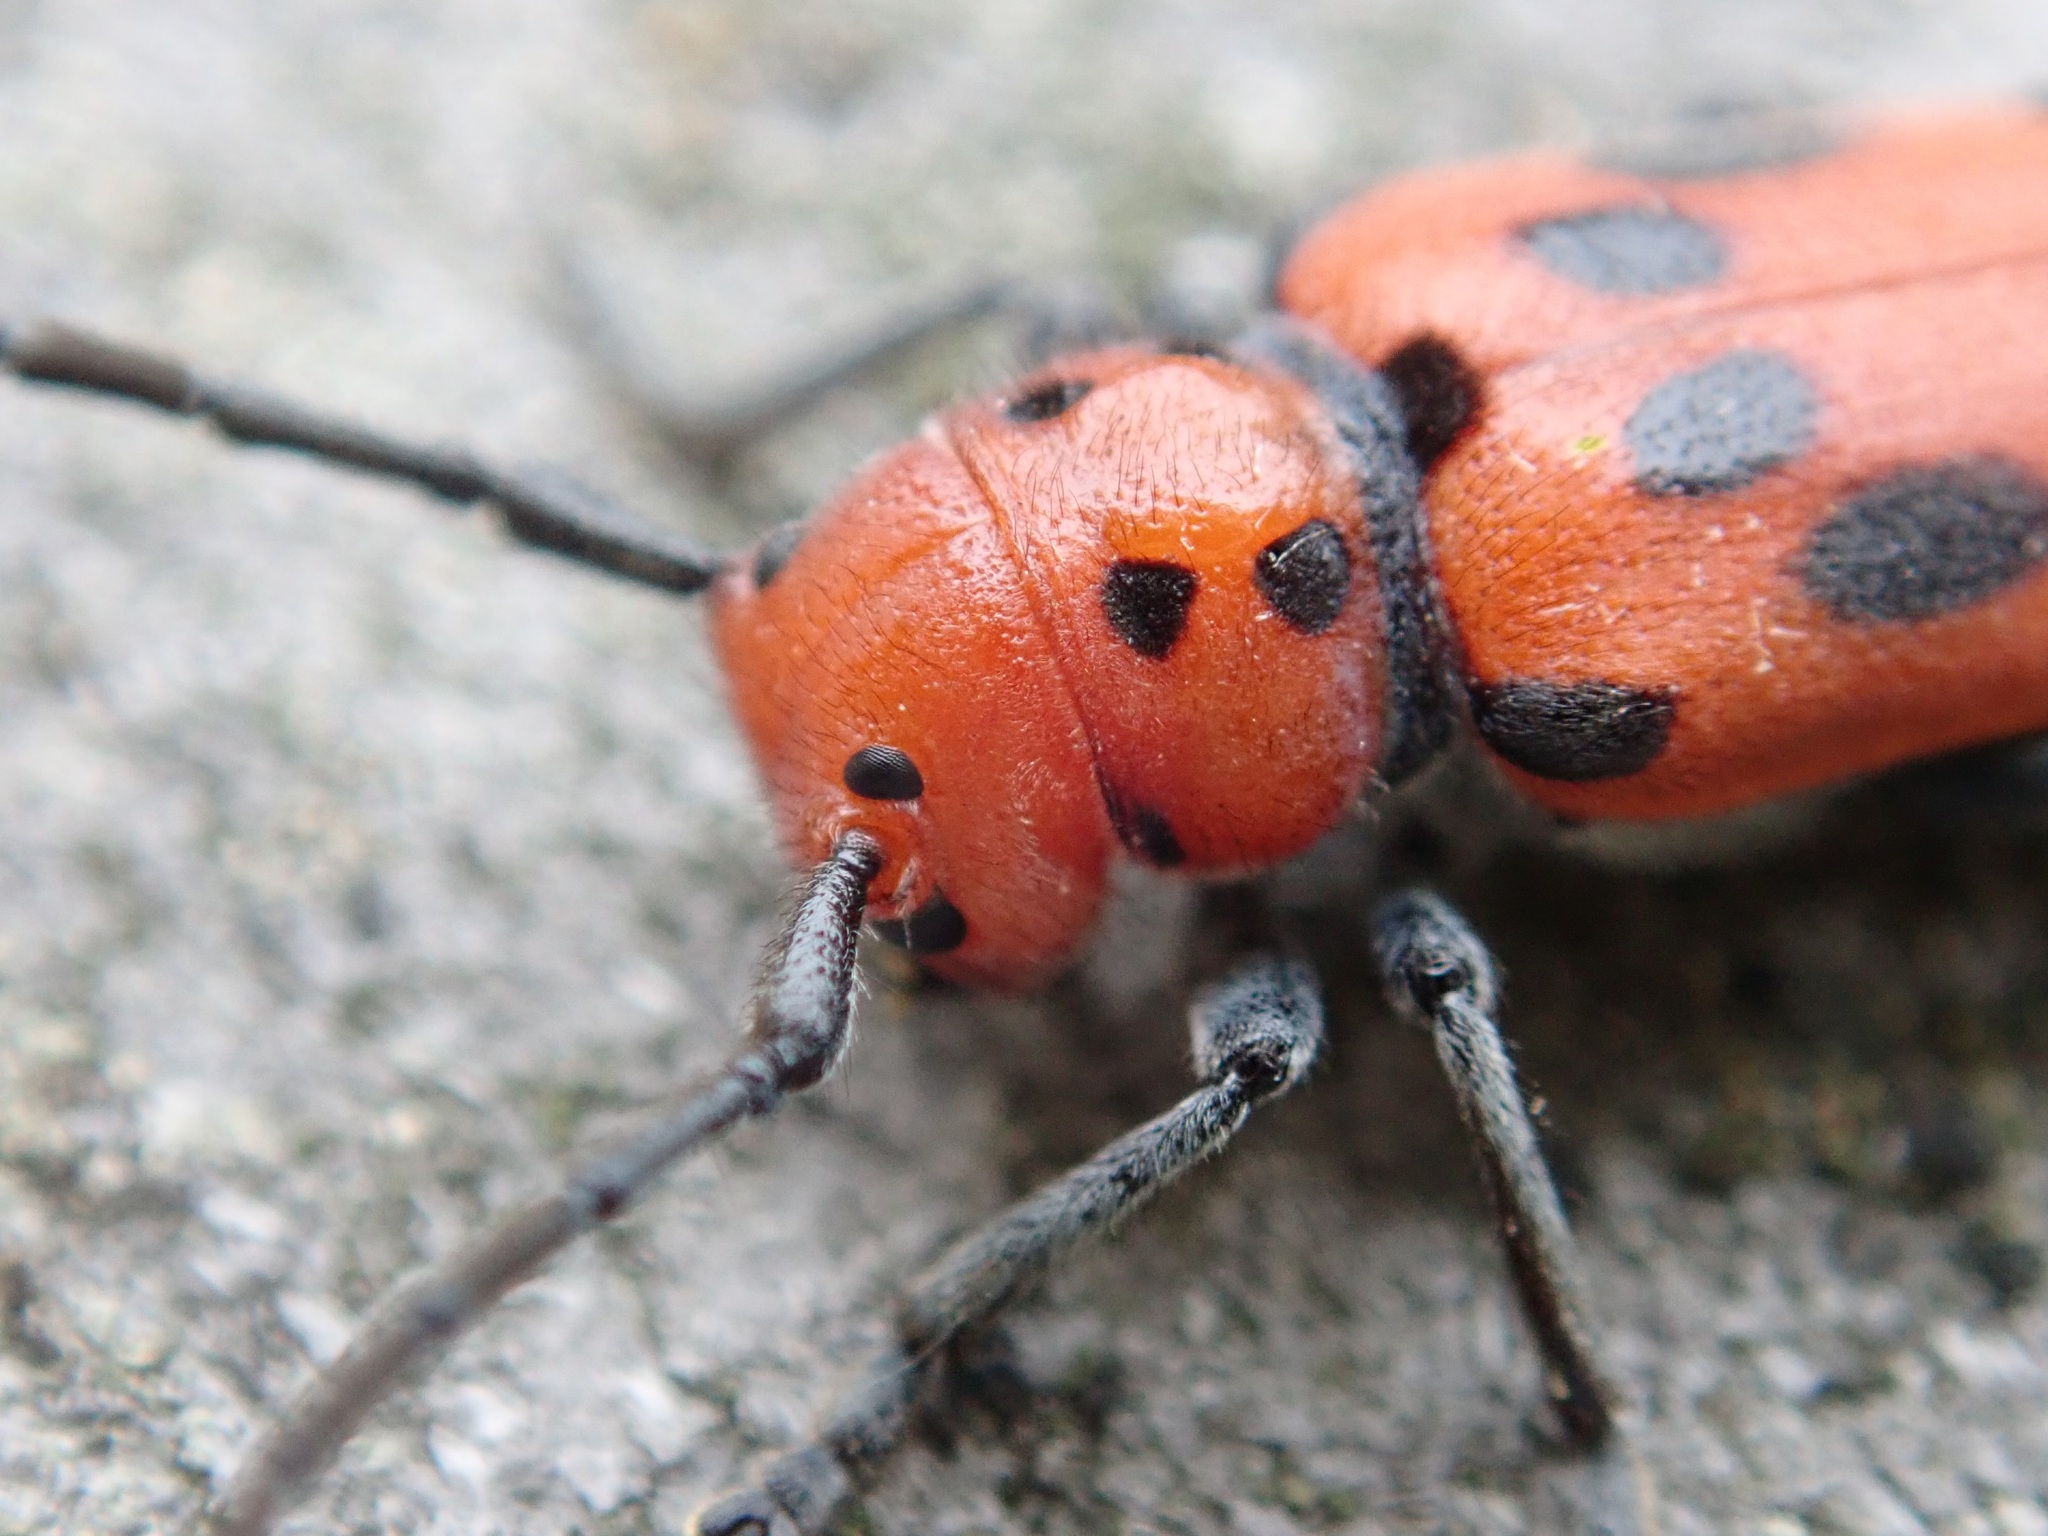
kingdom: Animalia
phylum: Arthropoda
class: Insecta
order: Coleoptera
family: Cerambycidae
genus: Tetraopes
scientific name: Tetraopes tetrophthalmus
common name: Red milkweed beetle
